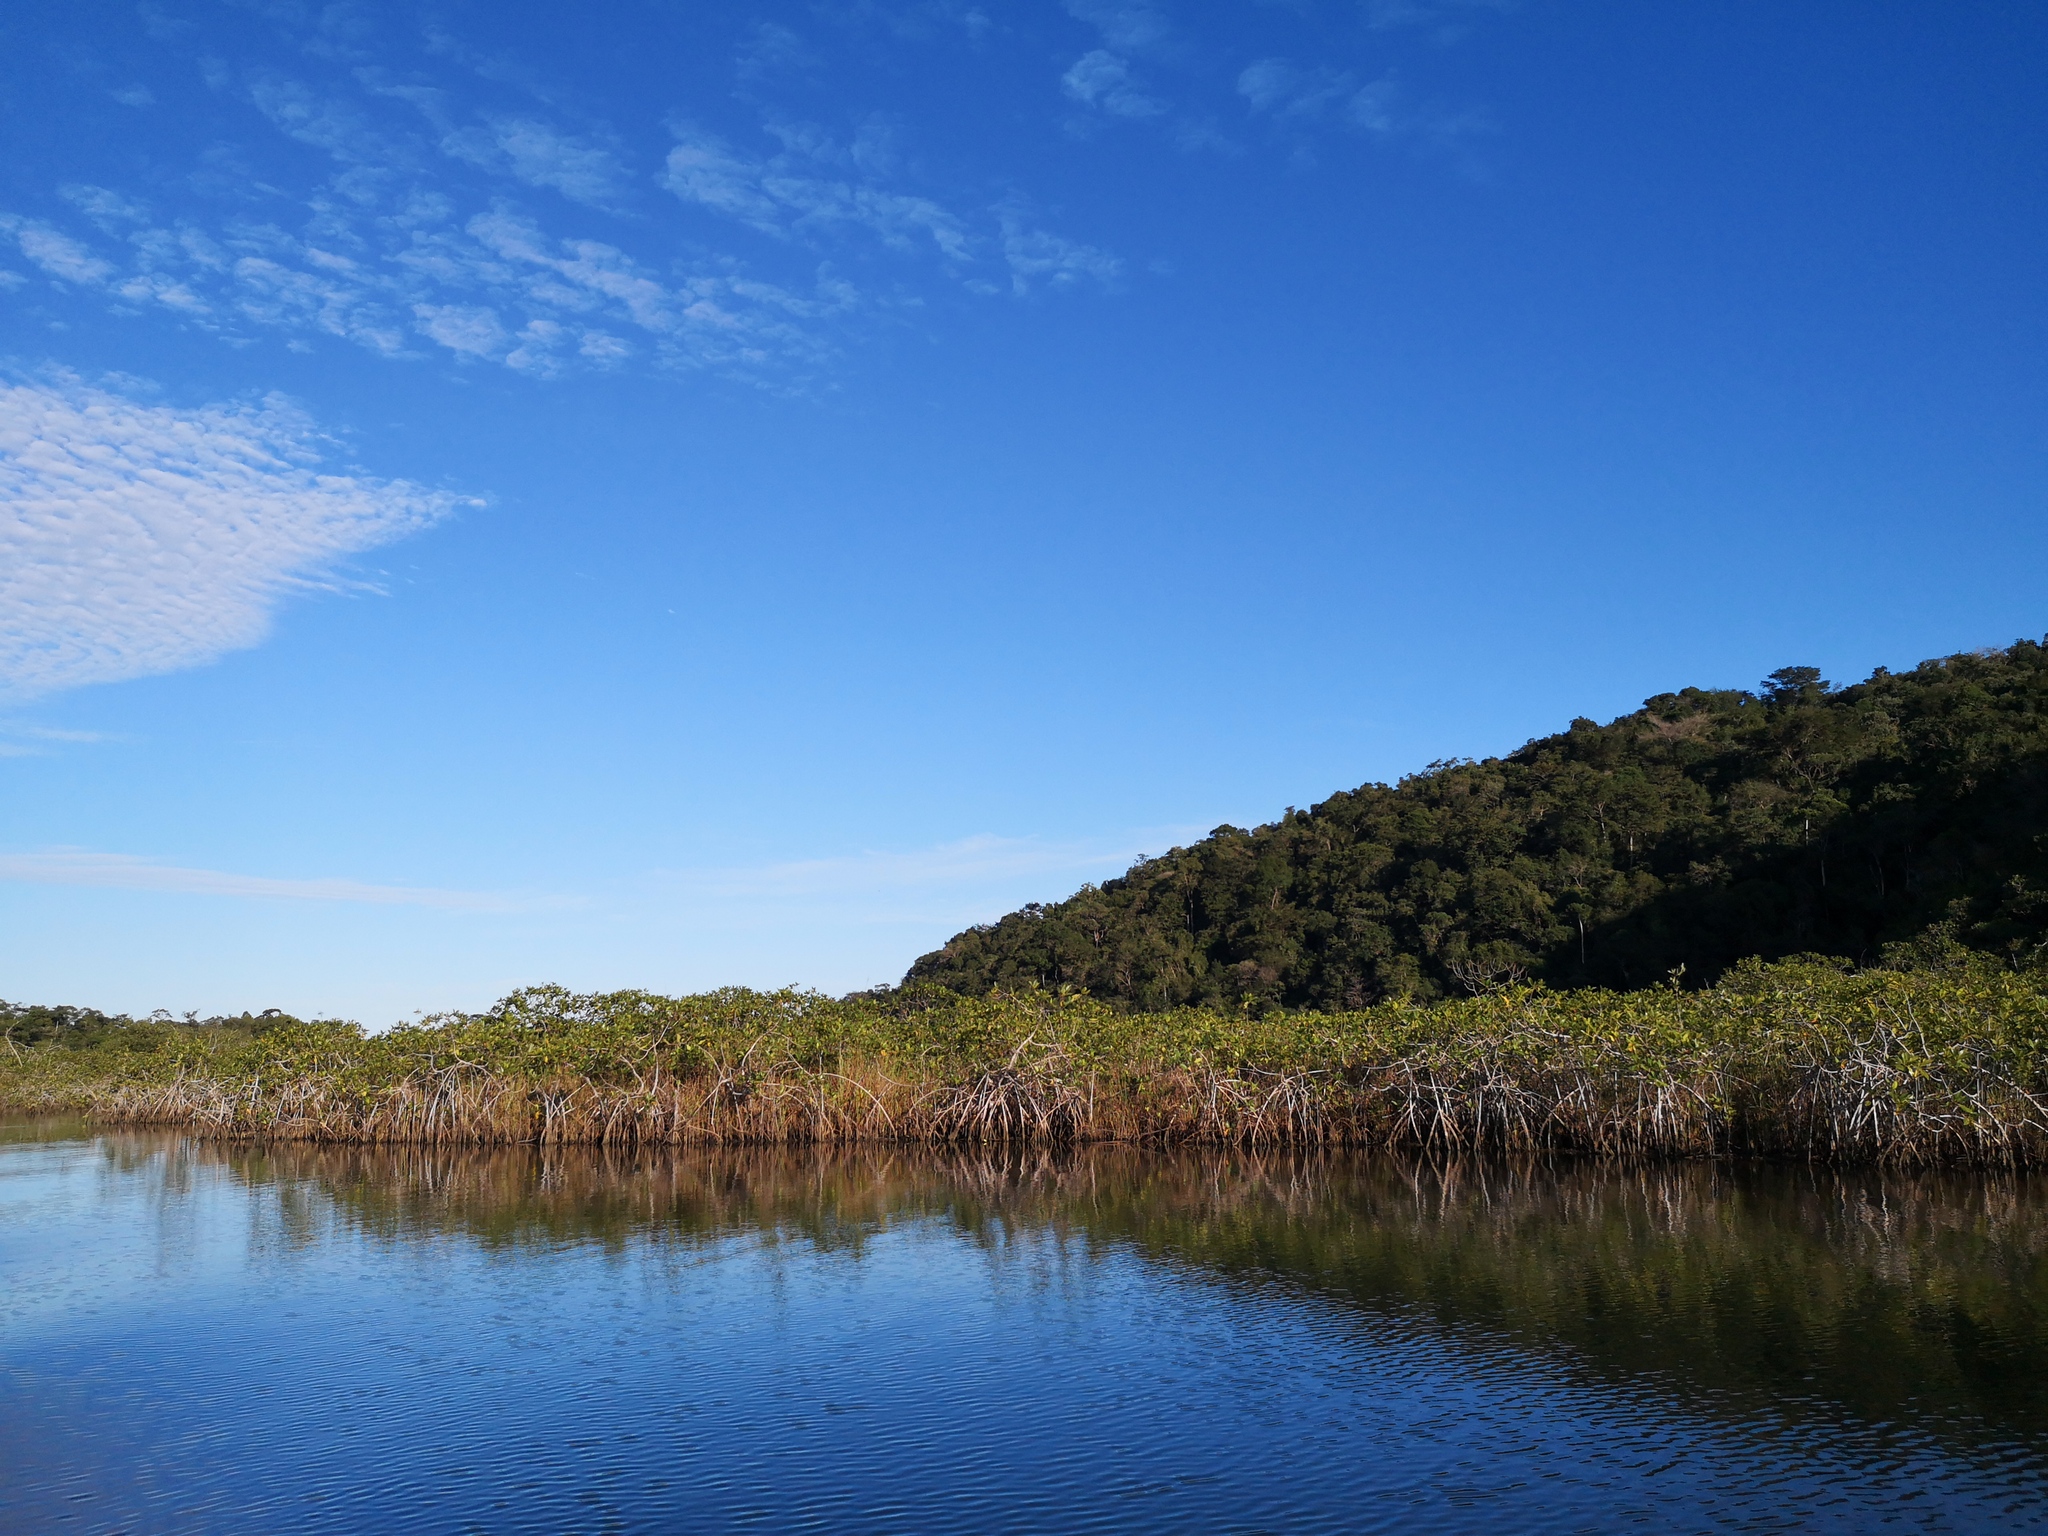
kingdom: Plantae
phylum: Tracheophyta
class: Magnoliopsida
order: Malpighiales
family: Rhizophoraceae
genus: Rhizophora
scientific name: Rhizophora mangle
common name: Red mangrove
